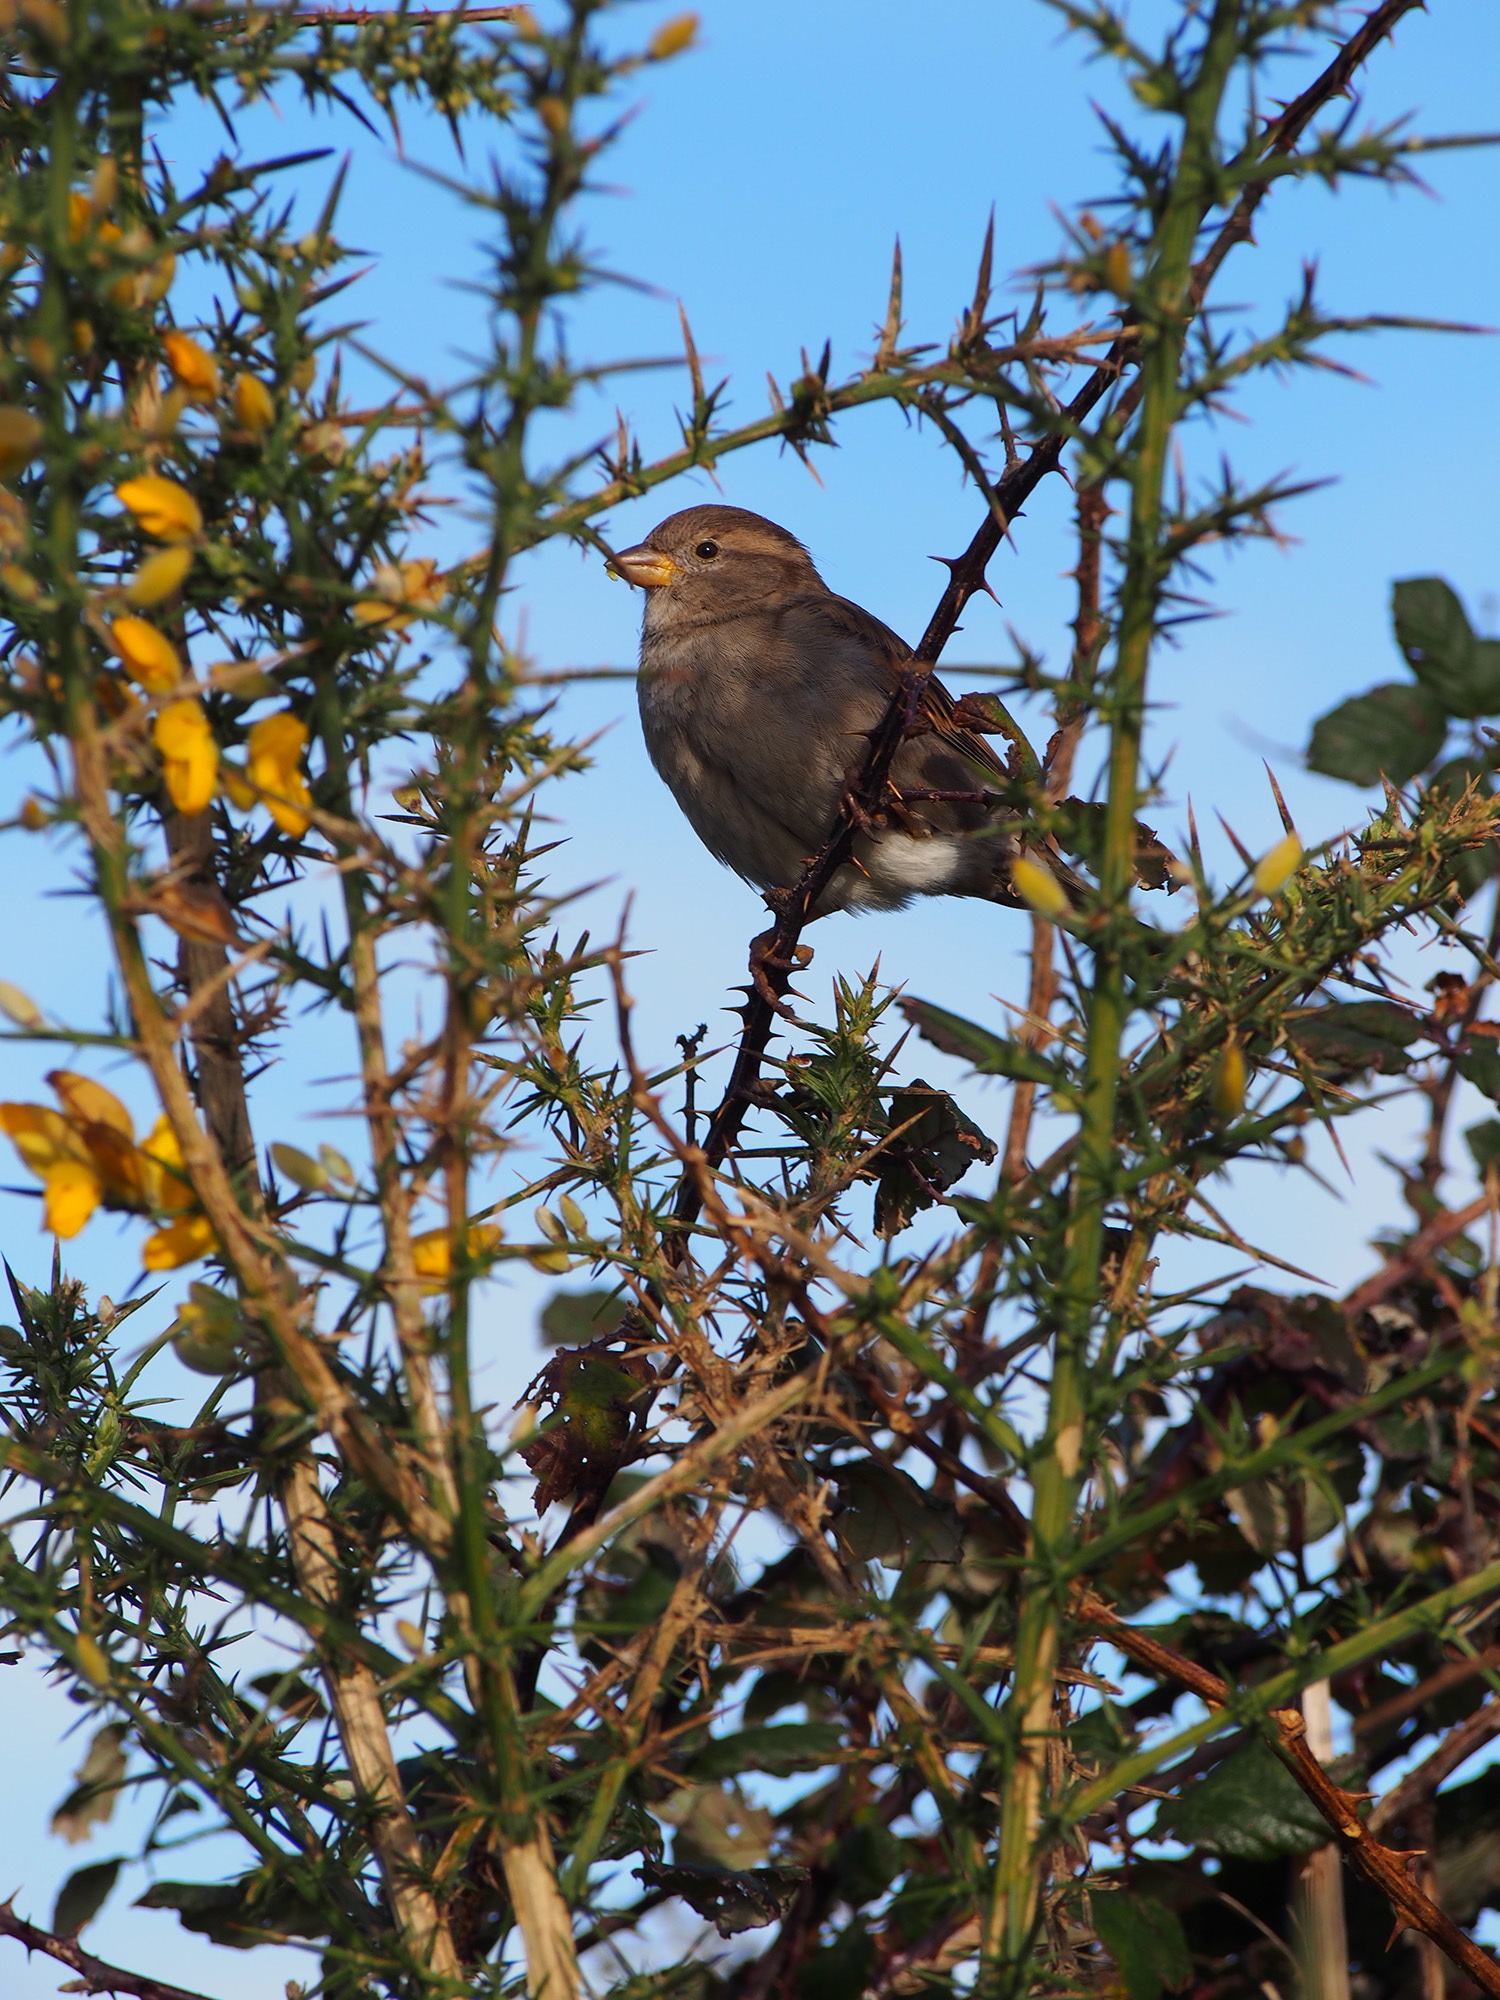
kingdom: Animalia
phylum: Chordata
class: Aves
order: Passeriformes
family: Passeridae
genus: Passer
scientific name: Passer domesticus
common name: House sparrow
